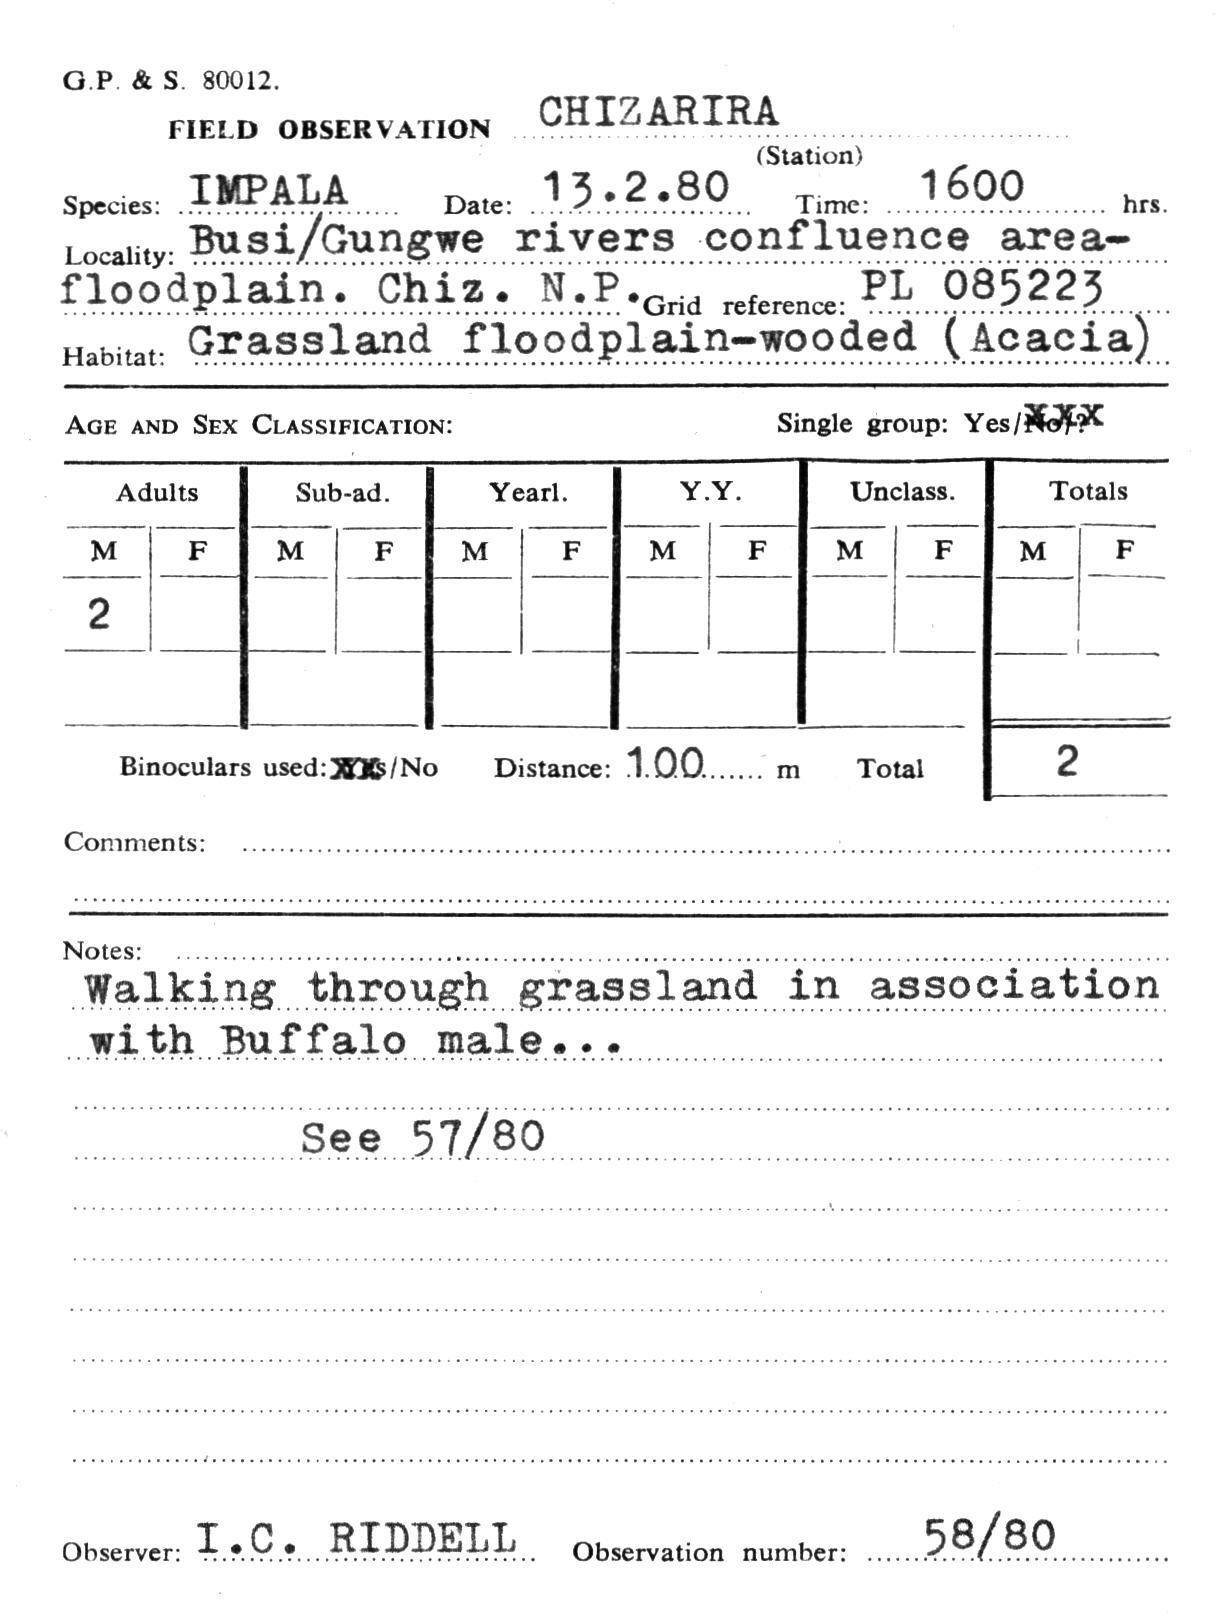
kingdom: Animalia
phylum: Chordata
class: Mammalia
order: Artiodactyla
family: Bovidae
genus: Aepyceros
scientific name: Aepyceros melampus
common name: Impala
